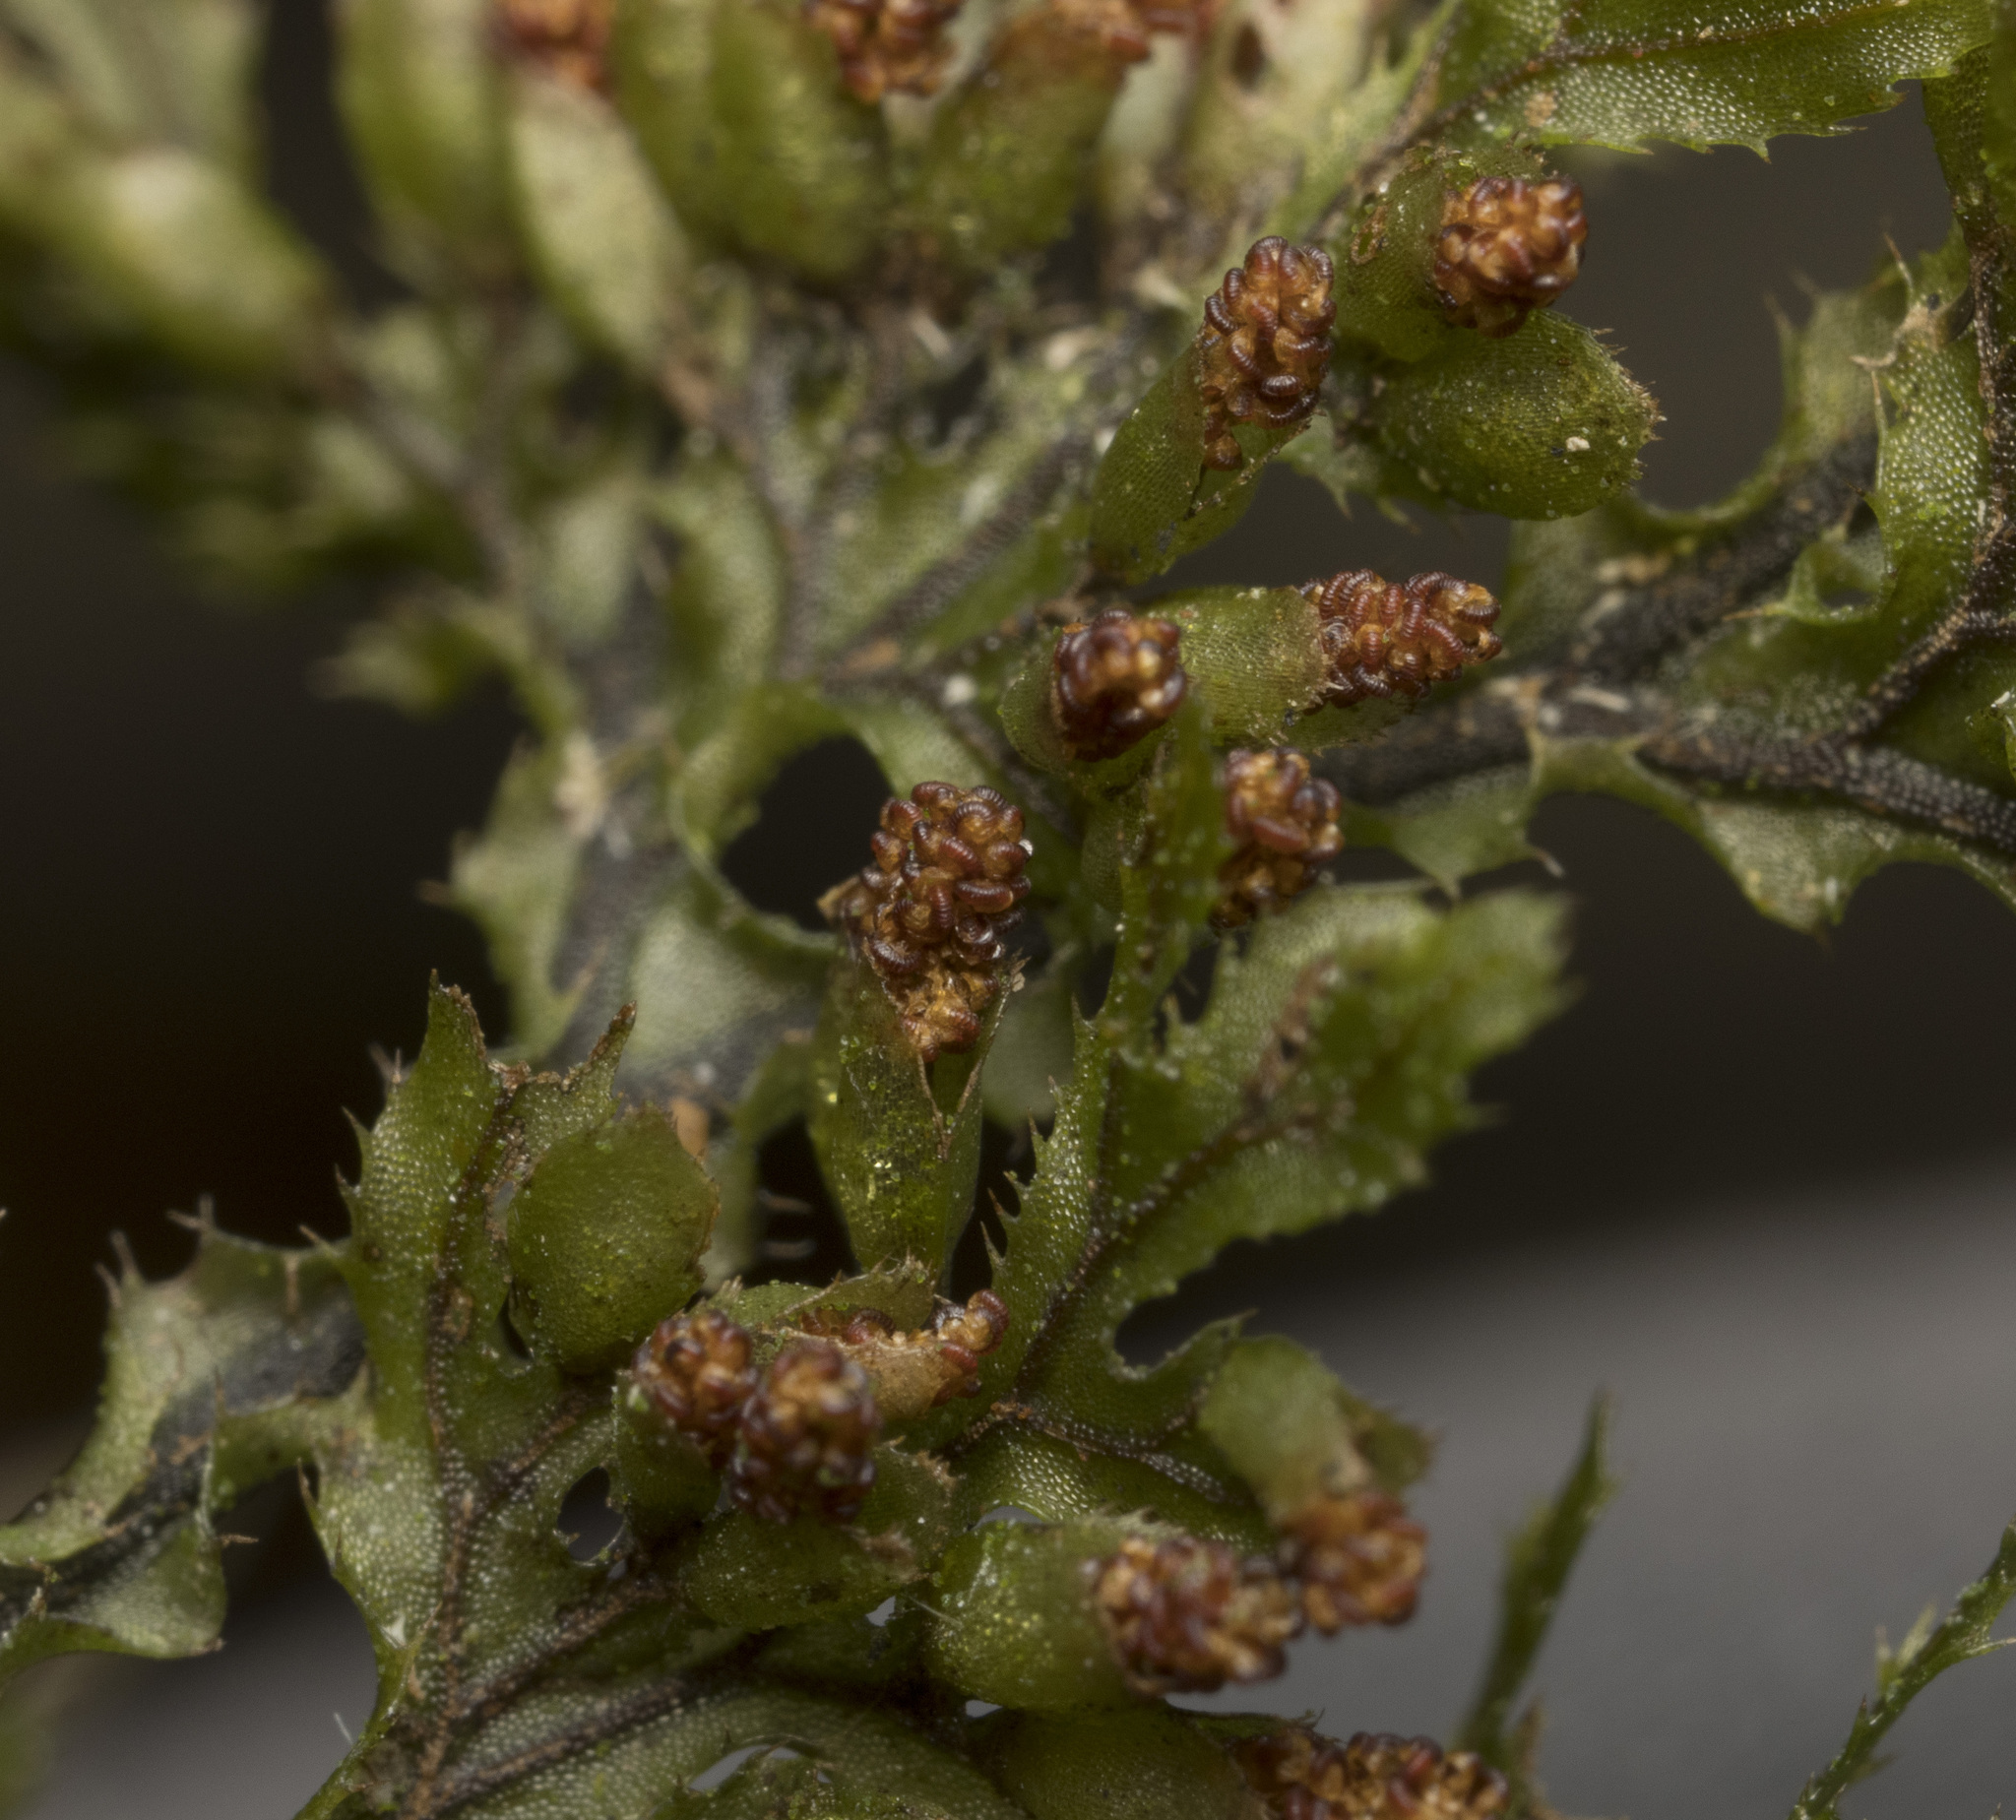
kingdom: Plantae
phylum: Tracheophyta
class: Polypodiopsida
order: Hymenophyllales
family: Hymenophyllaceae
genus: Hymenophyllum
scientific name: Hymenophyllum seselifolium
